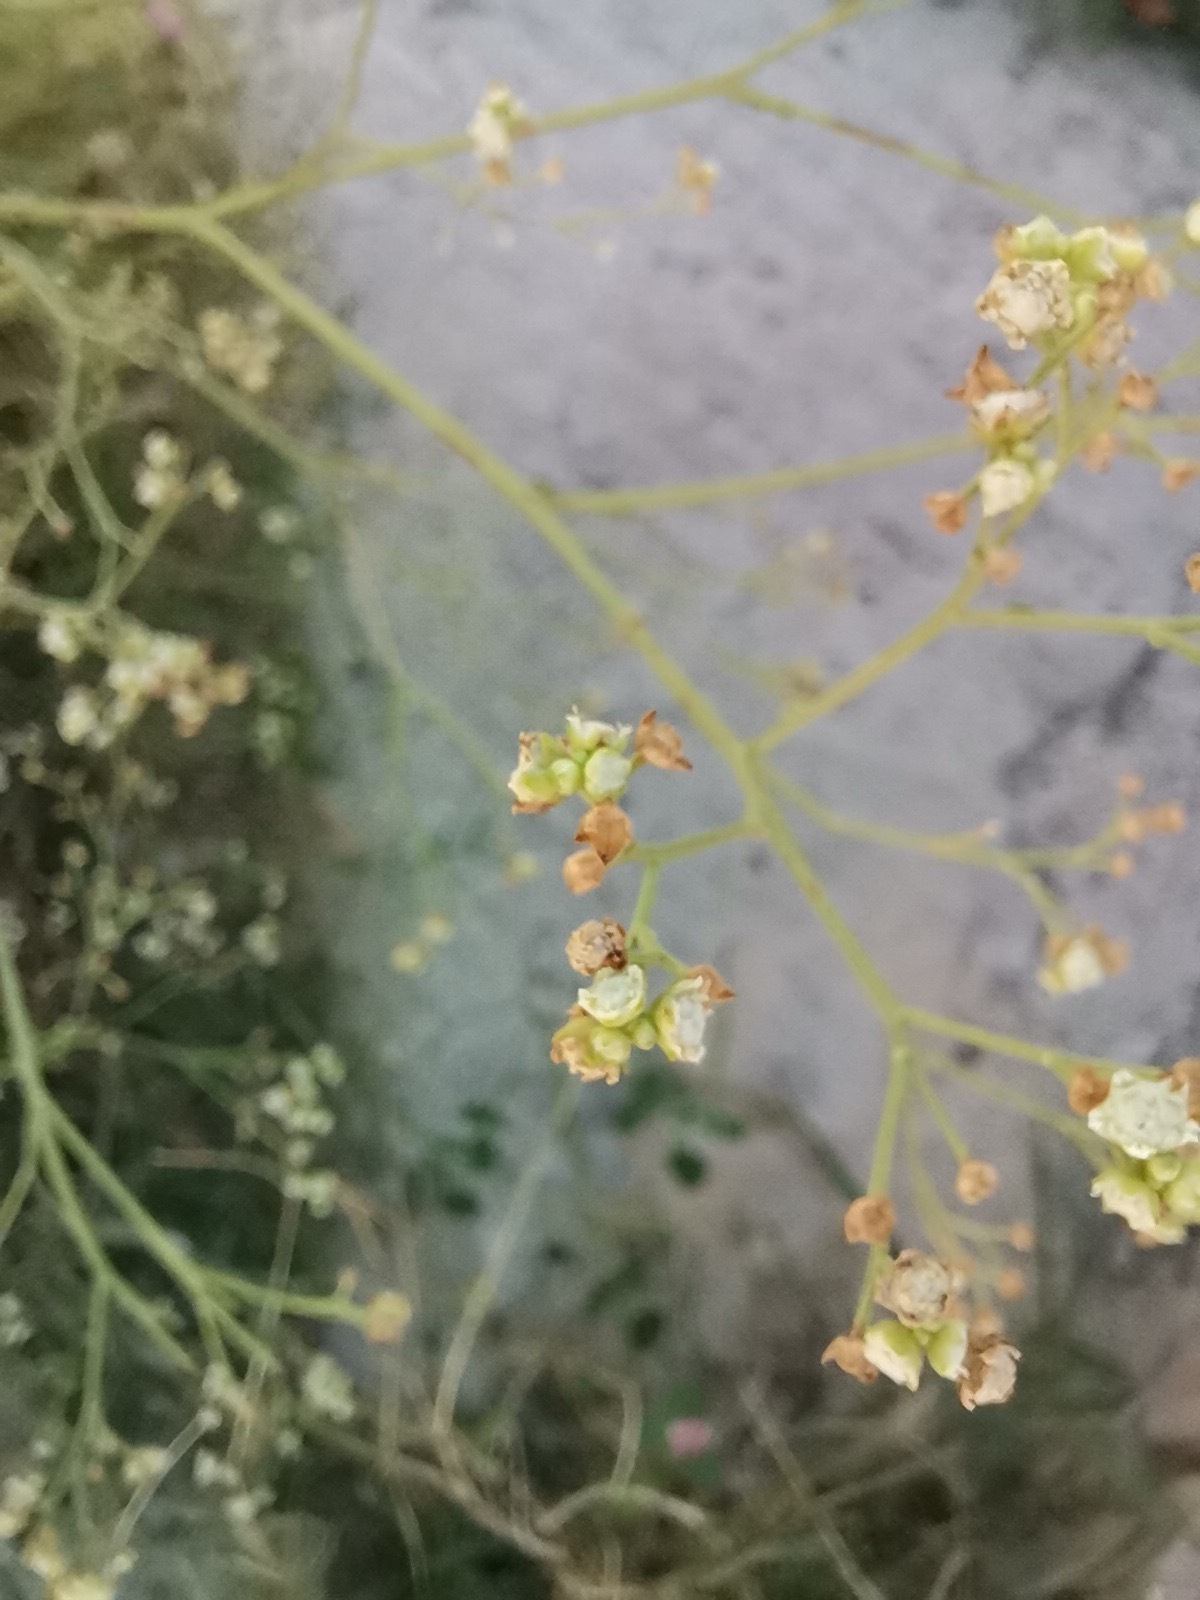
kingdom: Plantae
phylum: Tracheophyta
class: Magnoliopsida
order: Asterales
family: Asteraceae
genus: Parthenium
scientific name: Parthenium hysterophorus
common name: Santa maria feverfew
